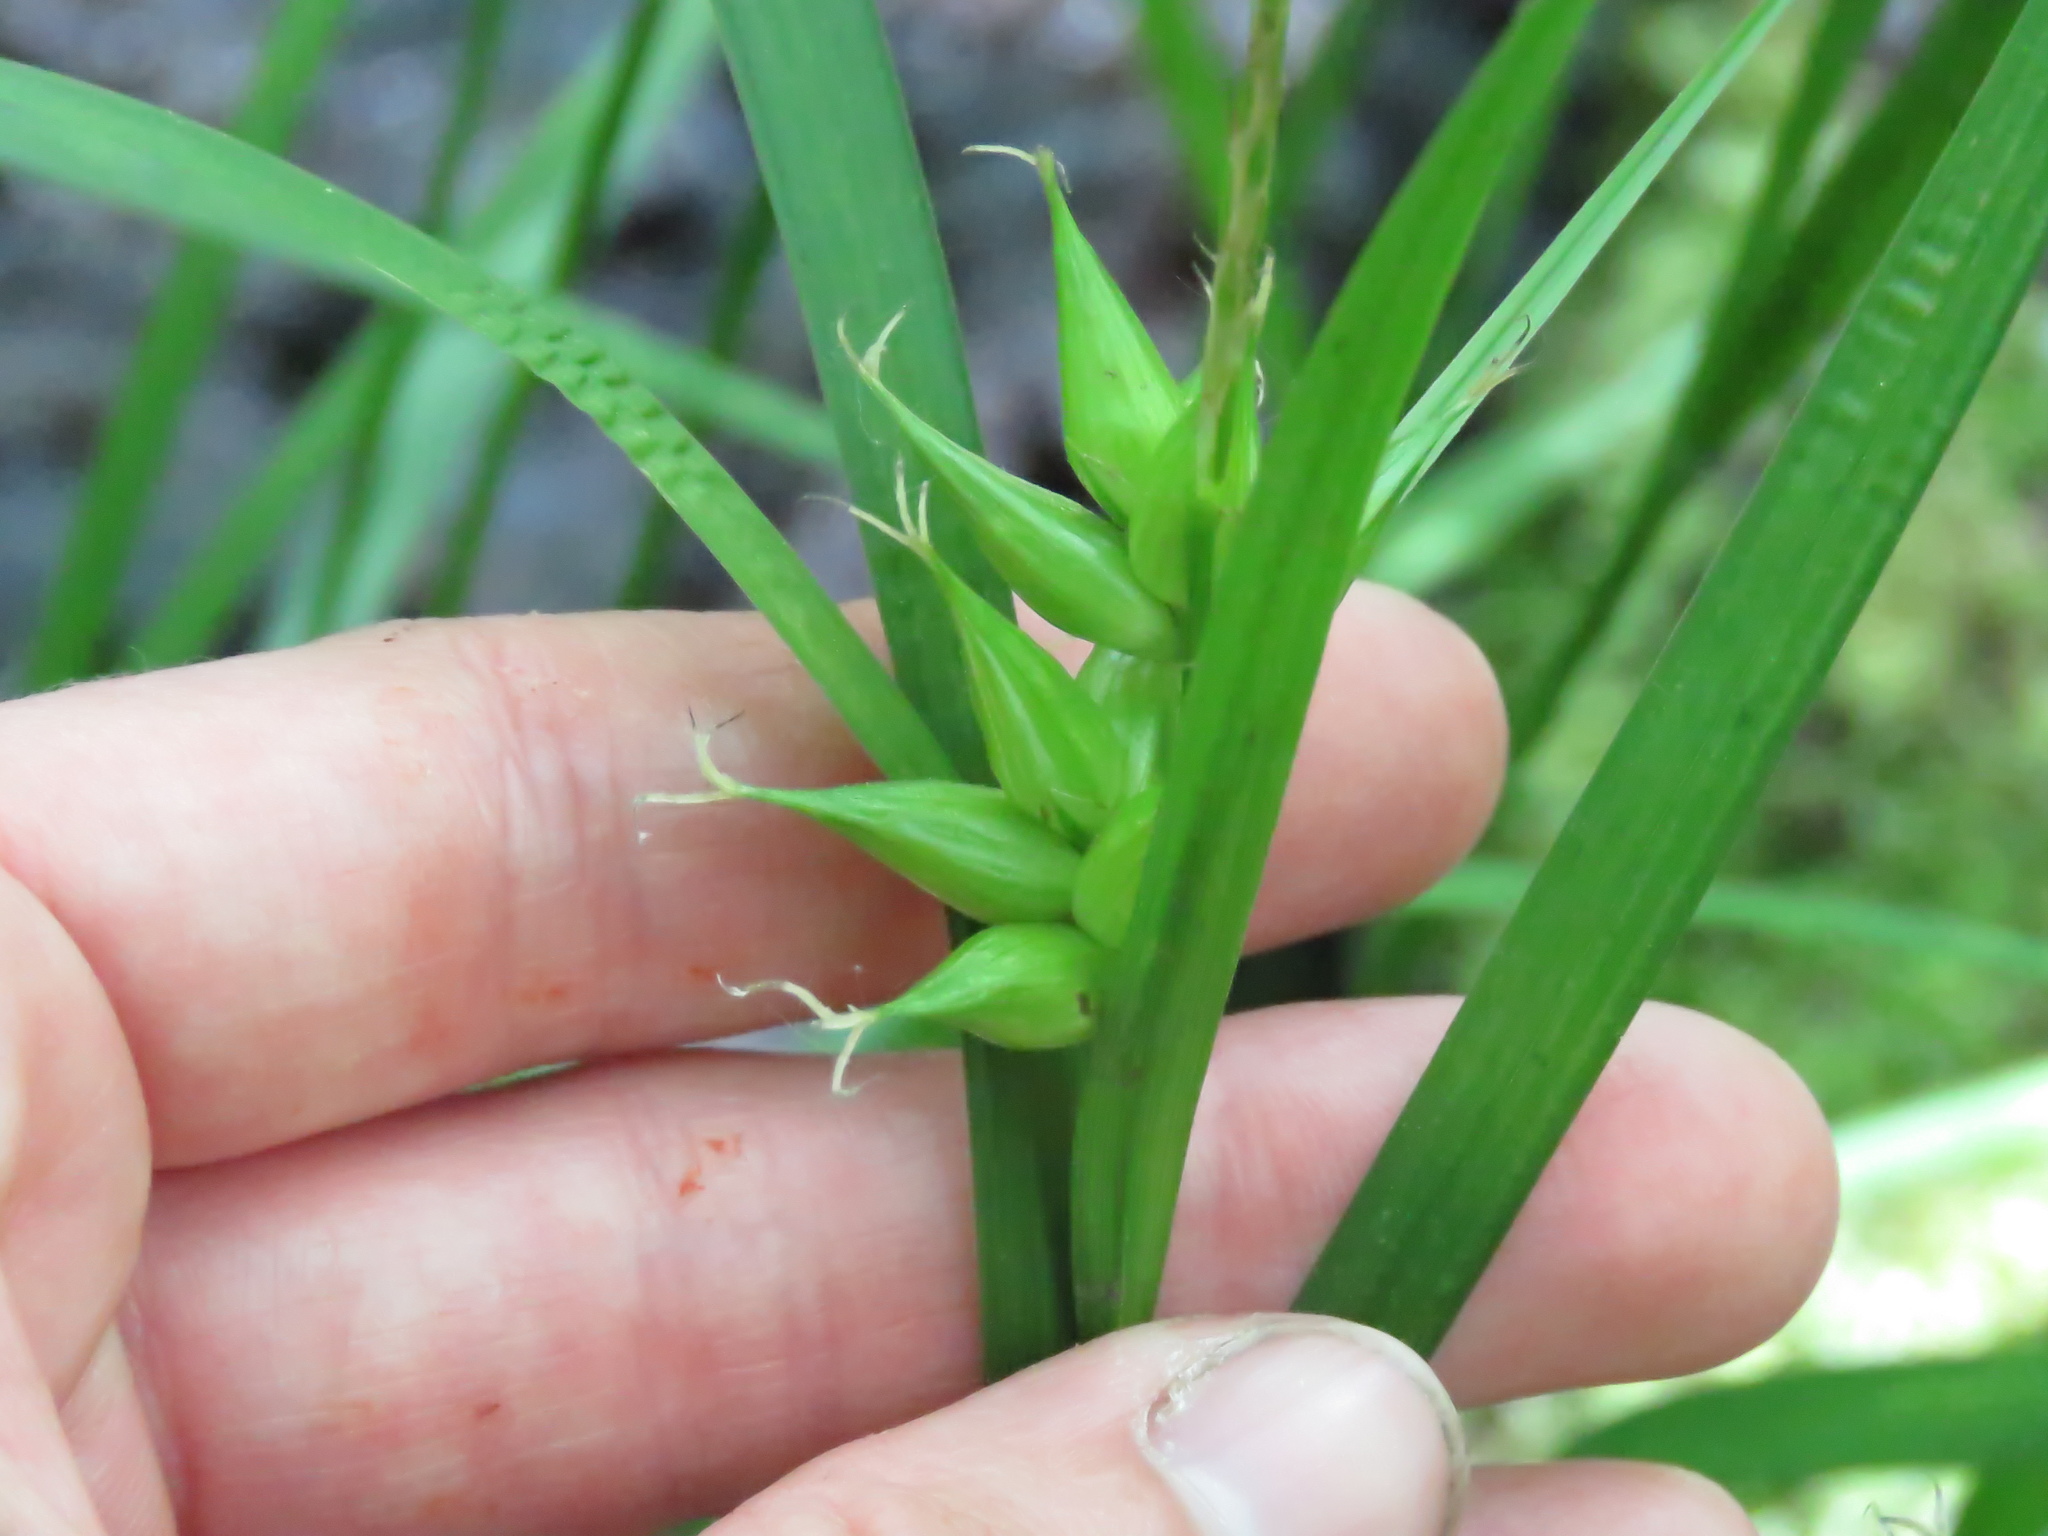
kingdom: Plantae
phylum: Tracheophyta
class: Liliopsida
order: Poales
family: Cyperaceae
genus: Carex
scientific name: Carex intumescens
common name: Greater bladder sedge
